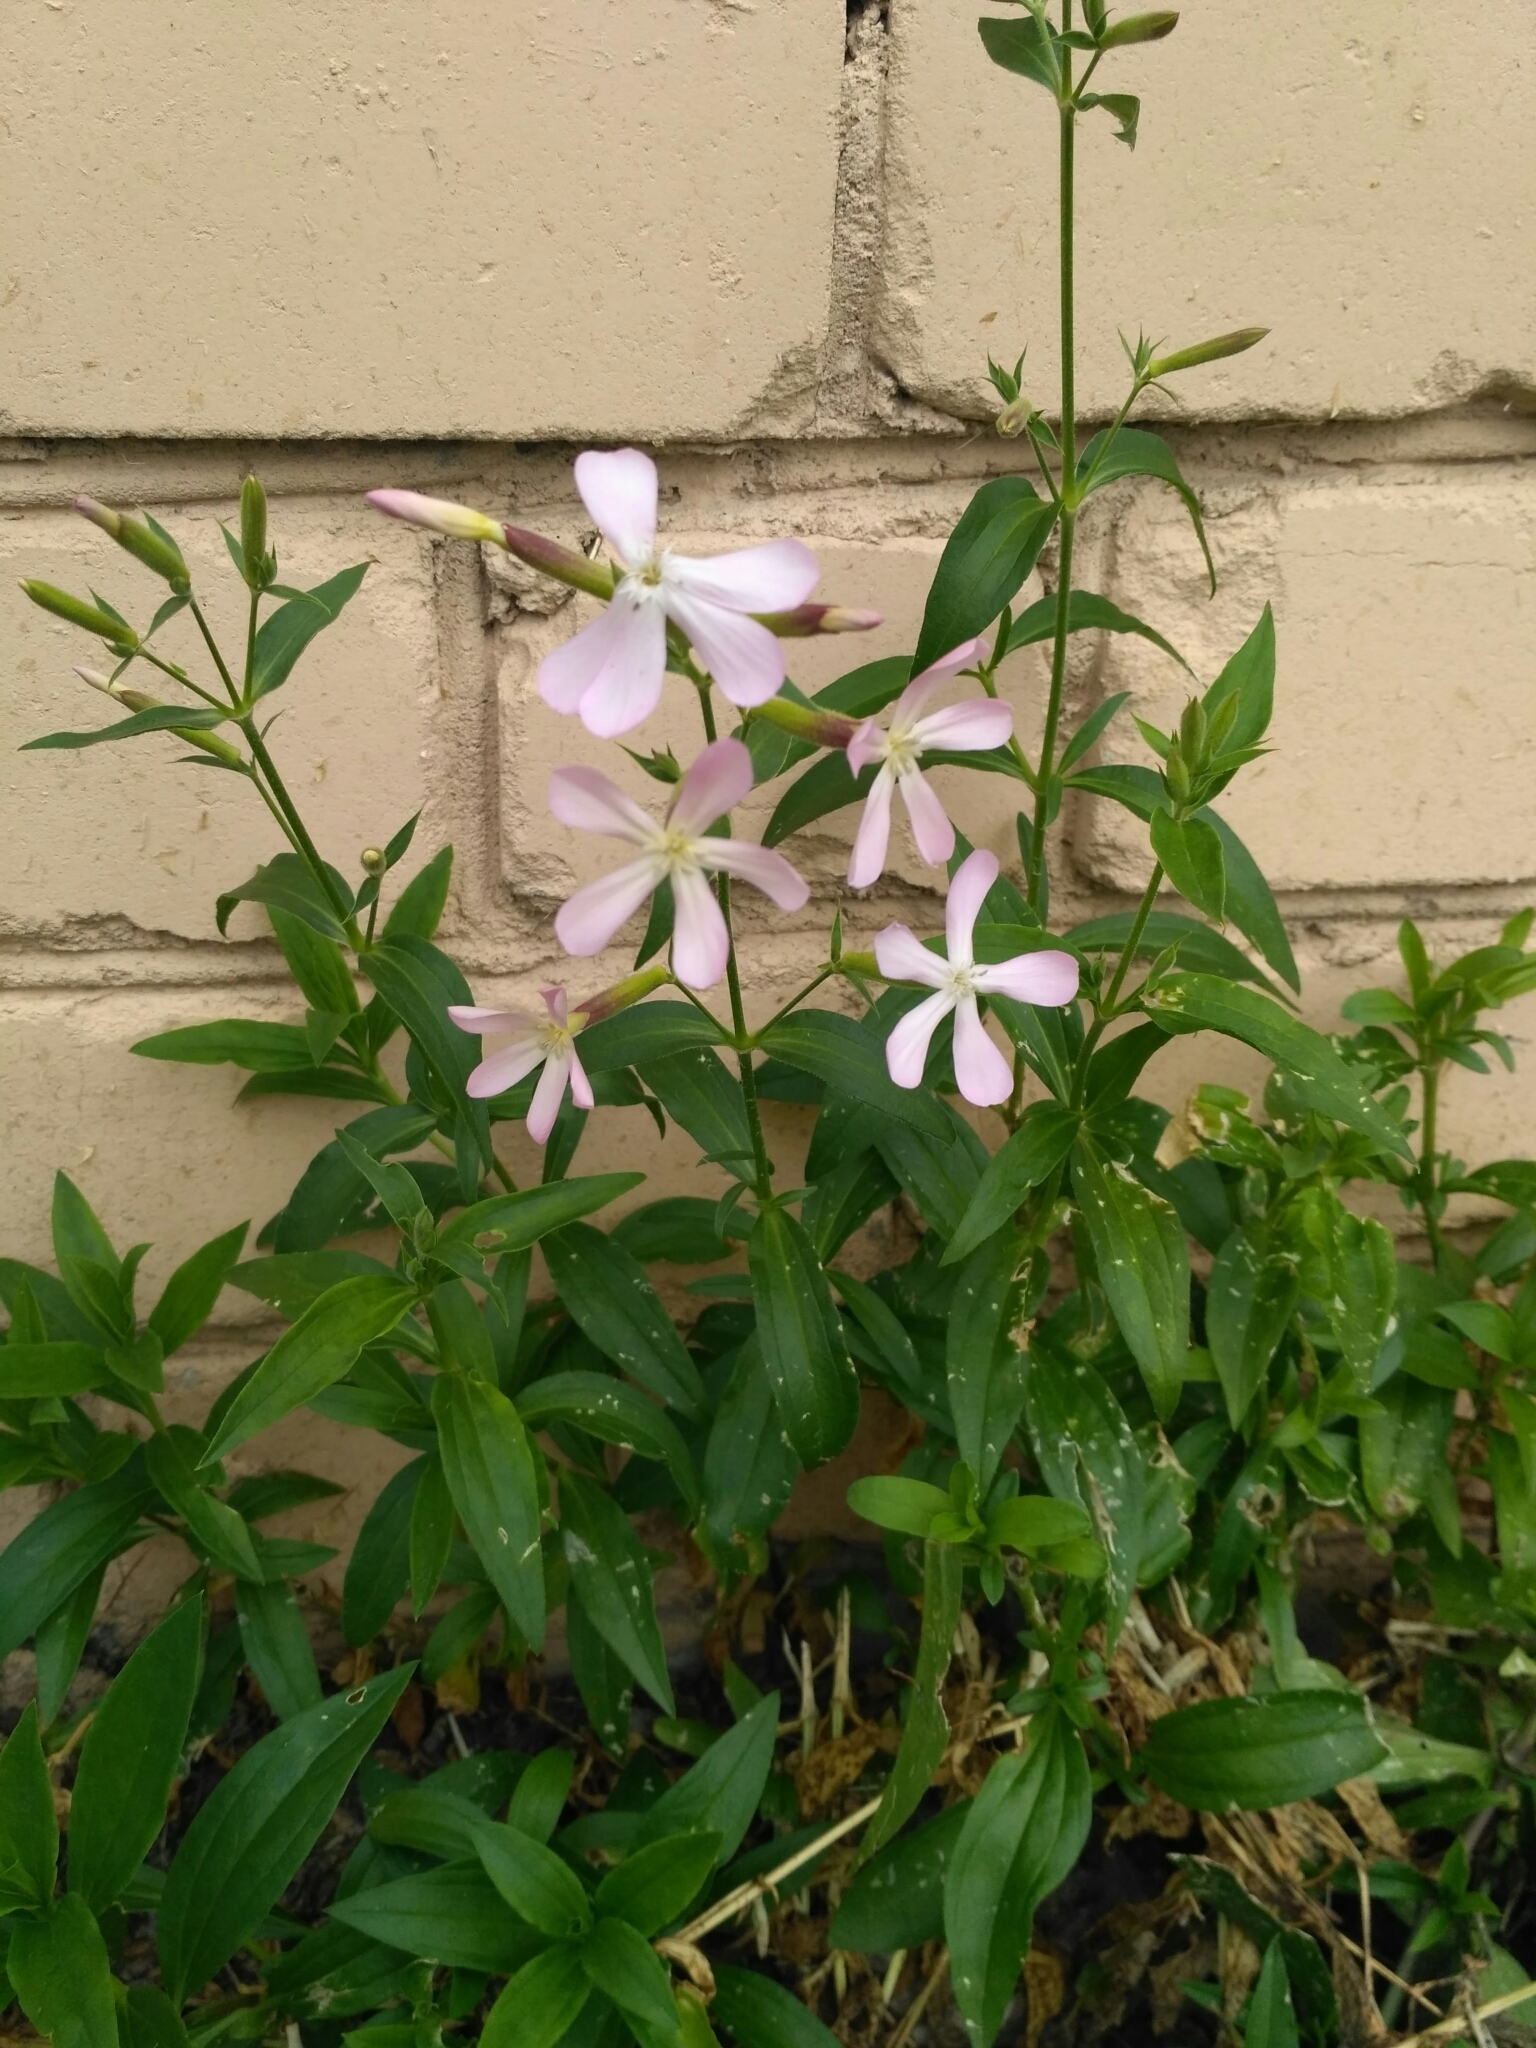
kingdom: Plantae
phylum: Tracheophyta
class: Magnoliopsida
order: Caryophyllales
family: Caryophyllaceae
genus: Saponaria
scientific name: Saponaria officinalis
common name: Soapwort
